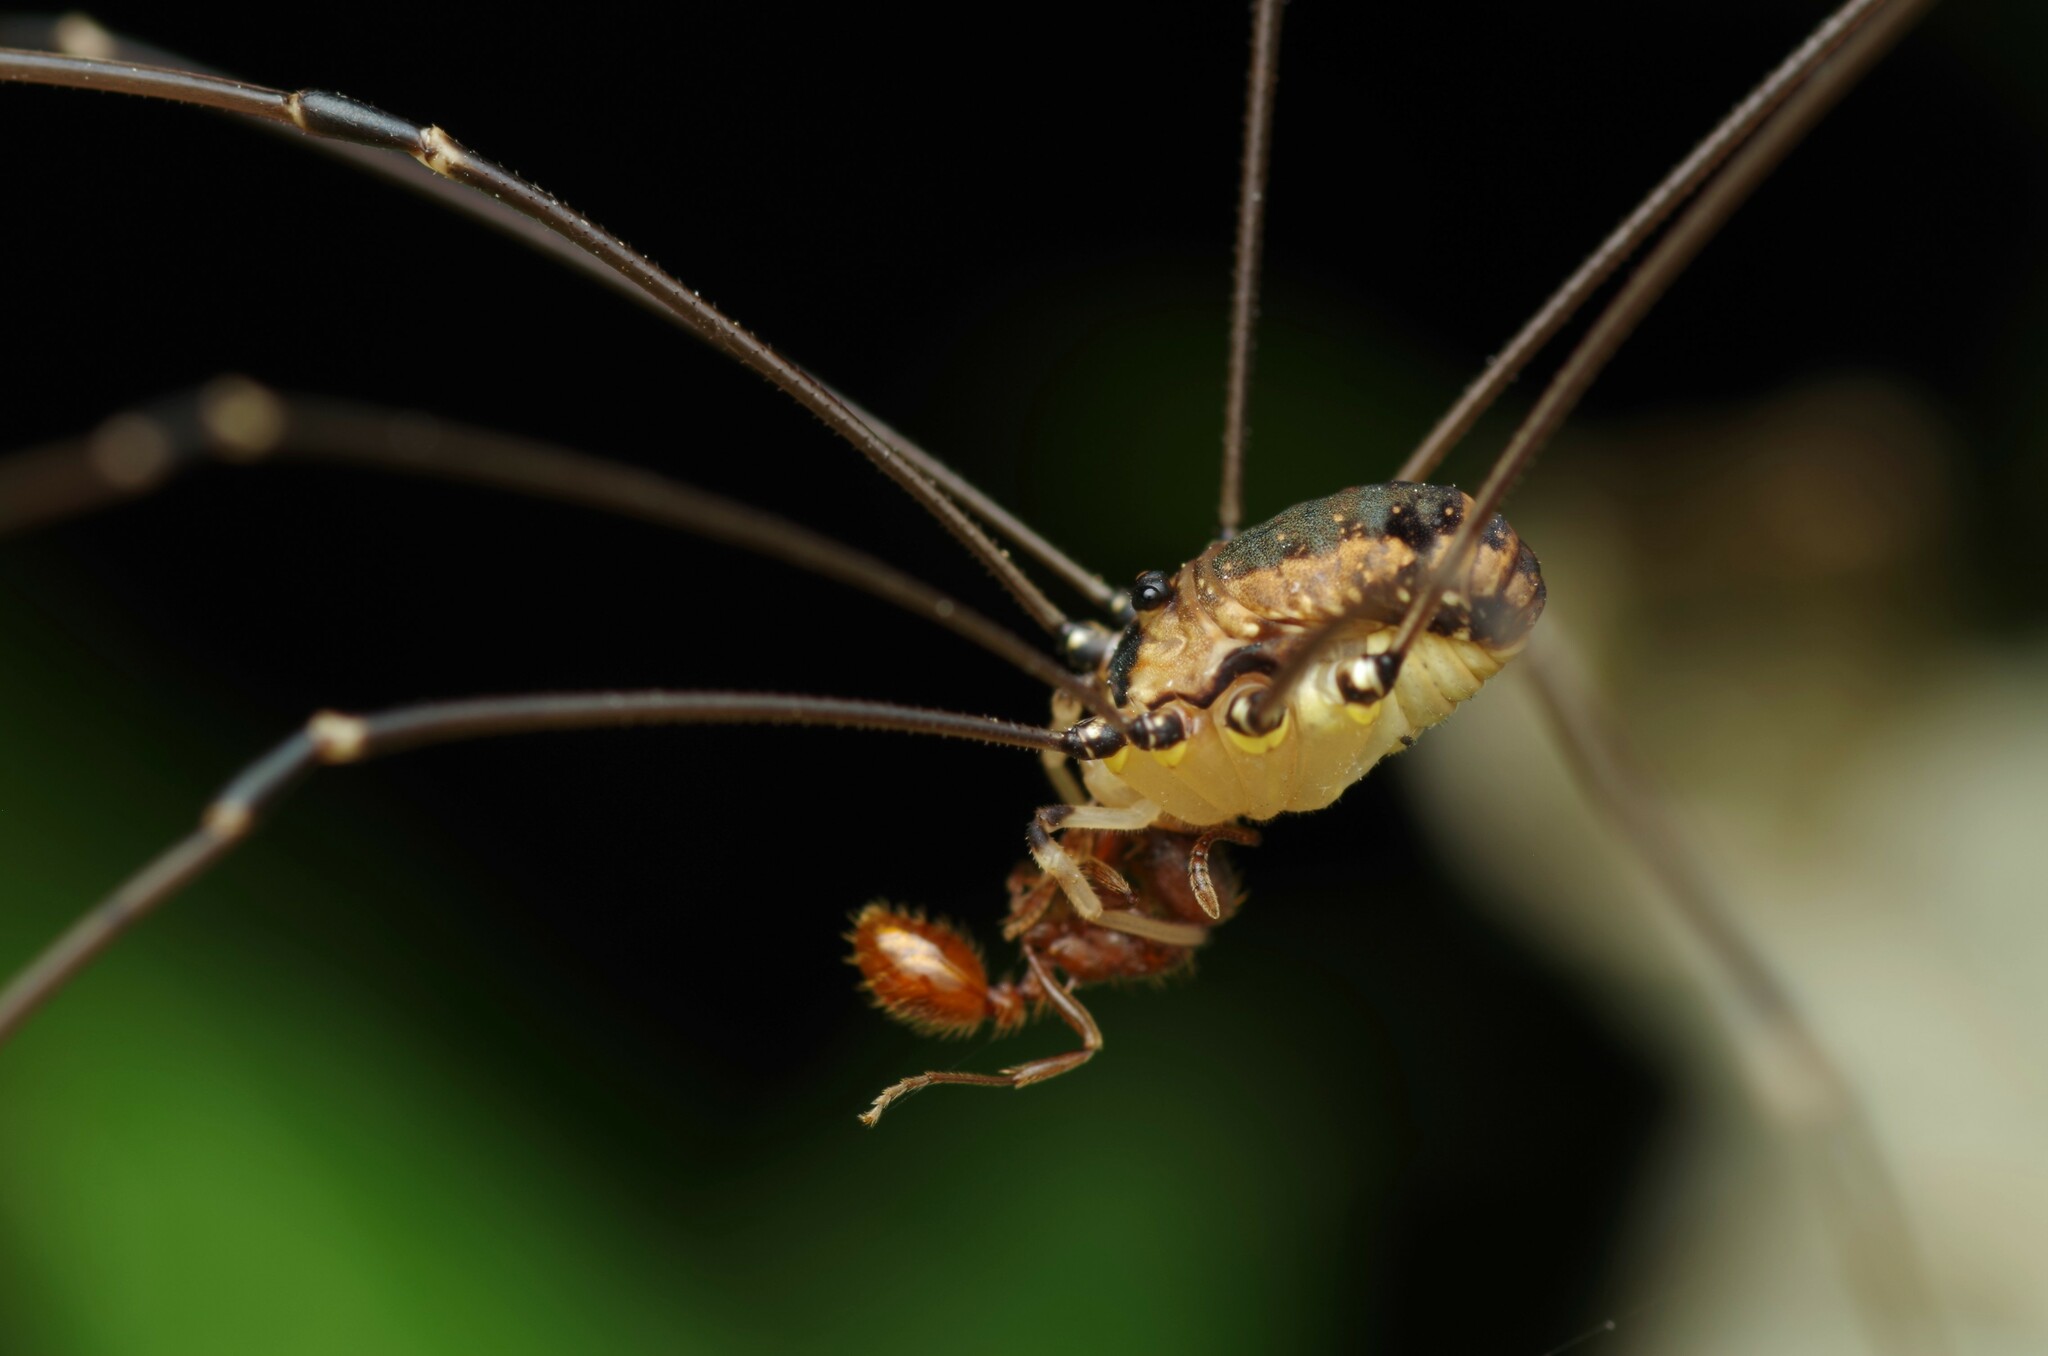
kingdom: Animalia
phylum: Arthropoda
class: Arachnida
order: Opiliones
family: Sclerosomatidae
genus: Leiobunum
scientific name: Leiobunum rotundum
